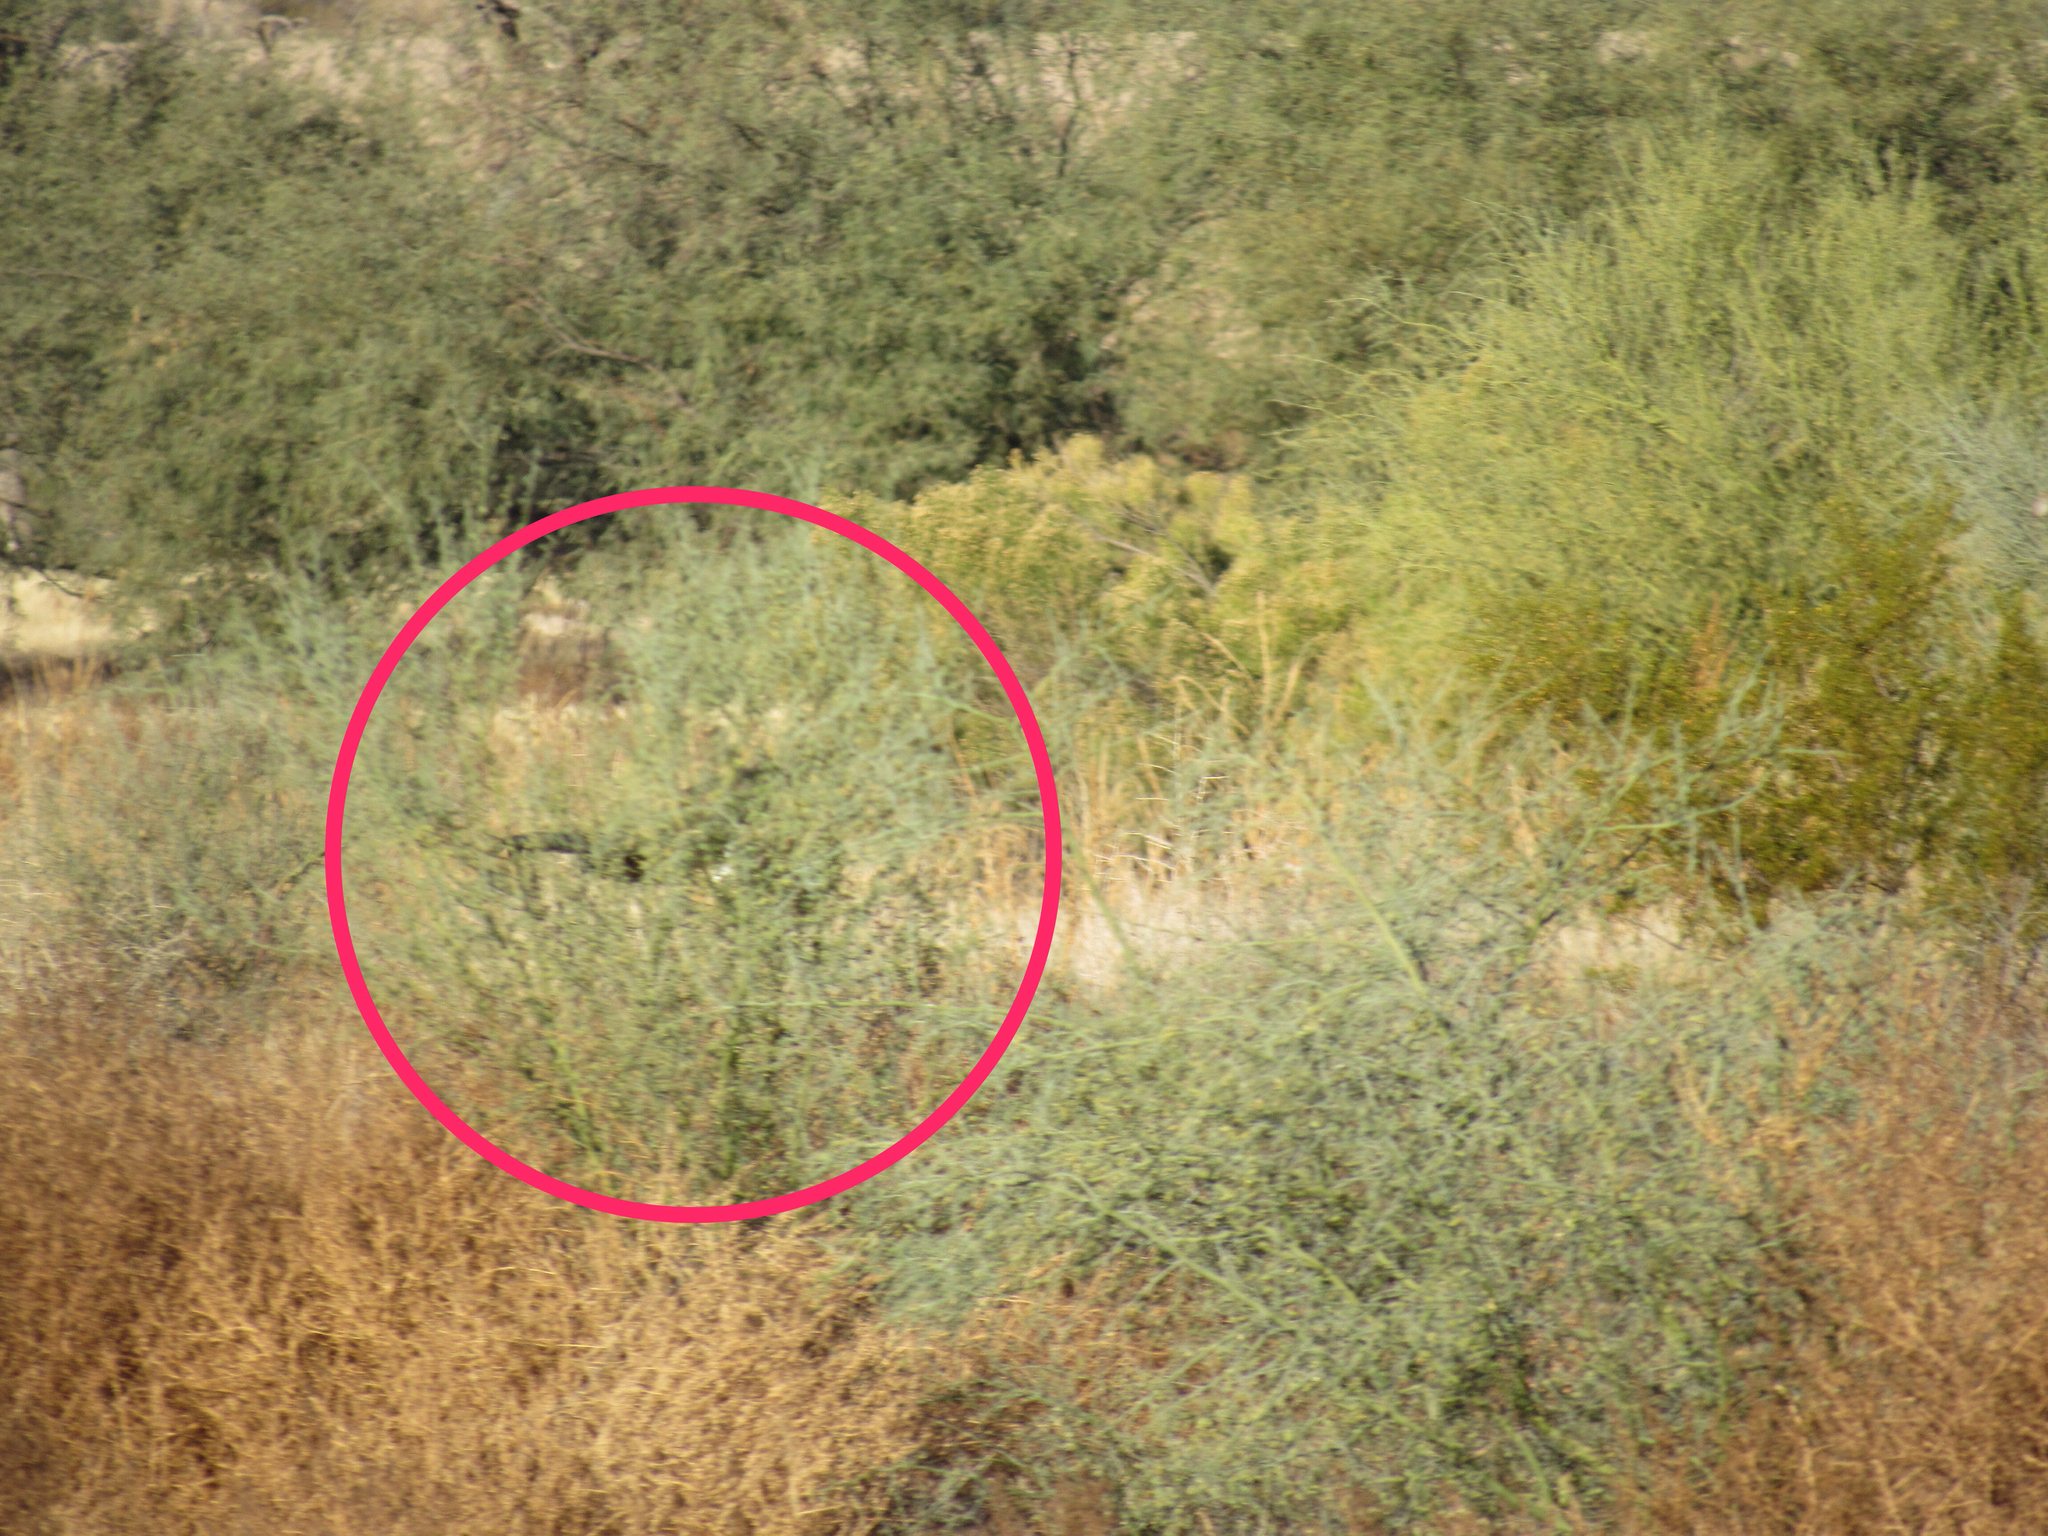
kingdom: Animalia
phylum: Chordata
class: Aves
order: Accipitriformes
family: Accipitridae
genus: Circus
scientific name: Circus cyaneus
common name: Hen harrier
